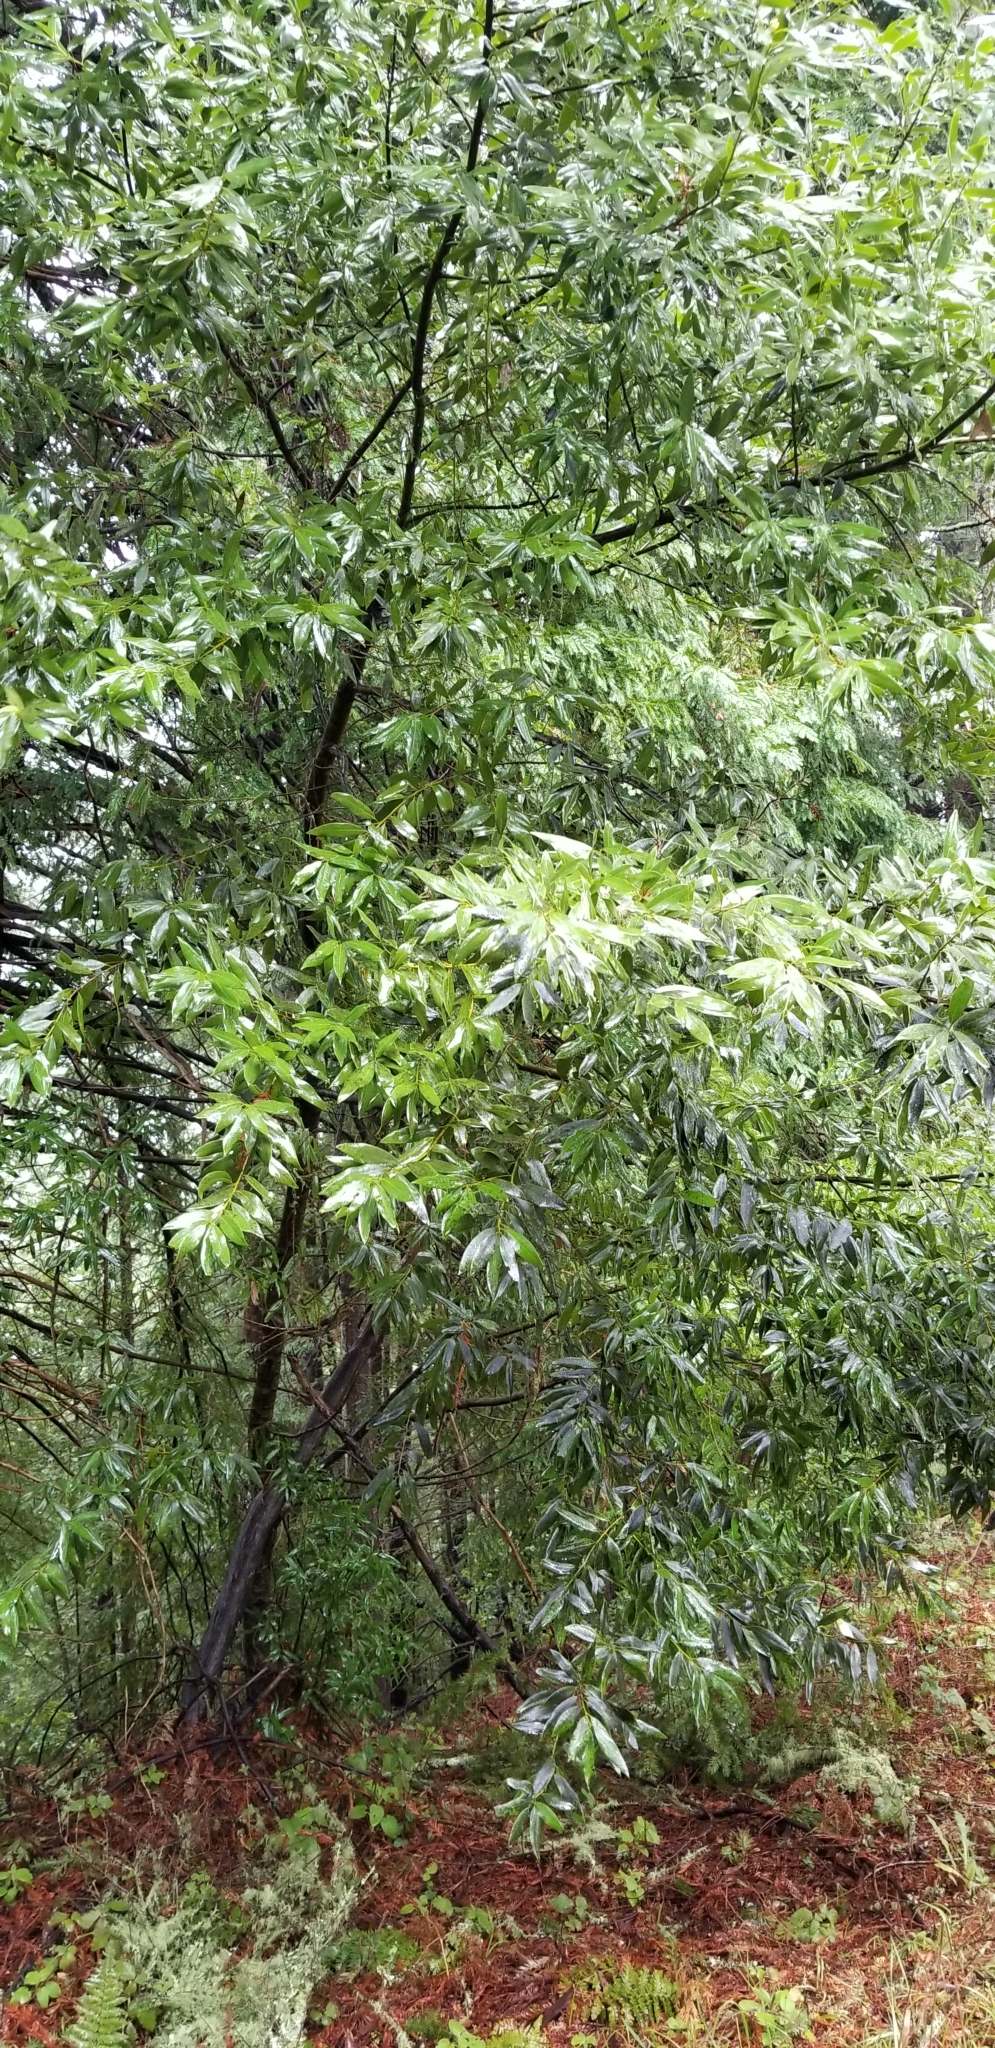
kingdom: Plantae
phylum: Tracheophyta
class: Magnoliopsida
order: Laurales
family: Lauraceae
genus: Umbellularia
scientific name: Umbellularia californica
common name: California bay
